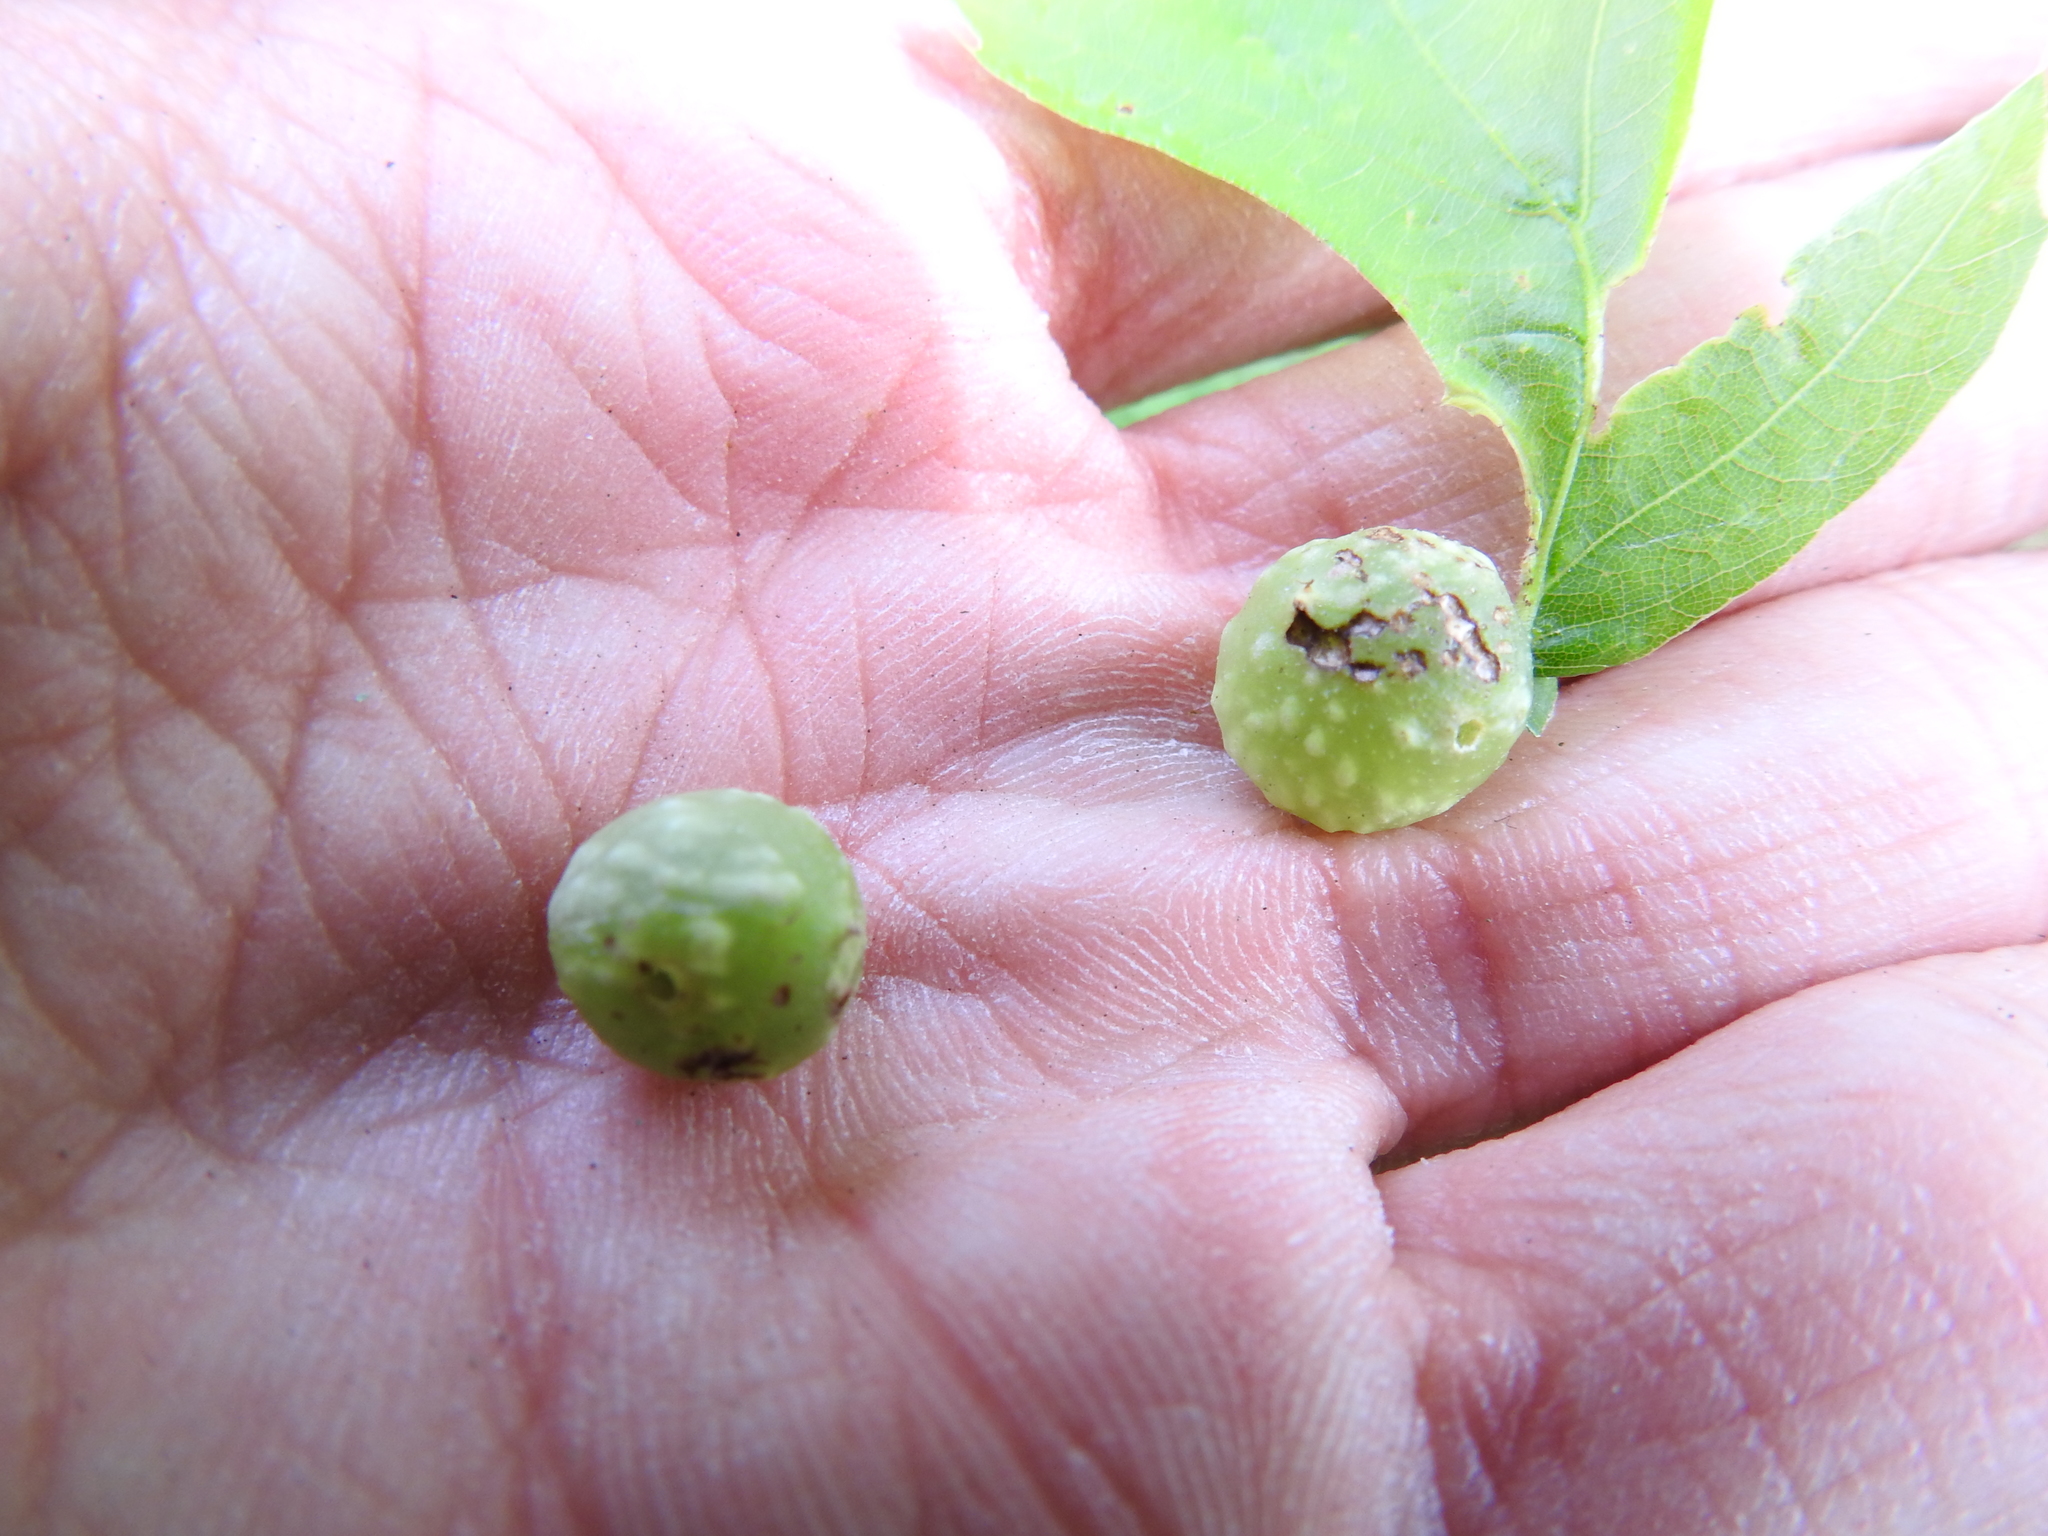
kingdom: Animalia
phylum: Arthropoda
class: Insecta
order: Hymenoptera
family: Cynipidae
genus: Dryocosmus
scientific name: Dryocosmus quercuspalustris
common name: Succulent oak gall wasp
